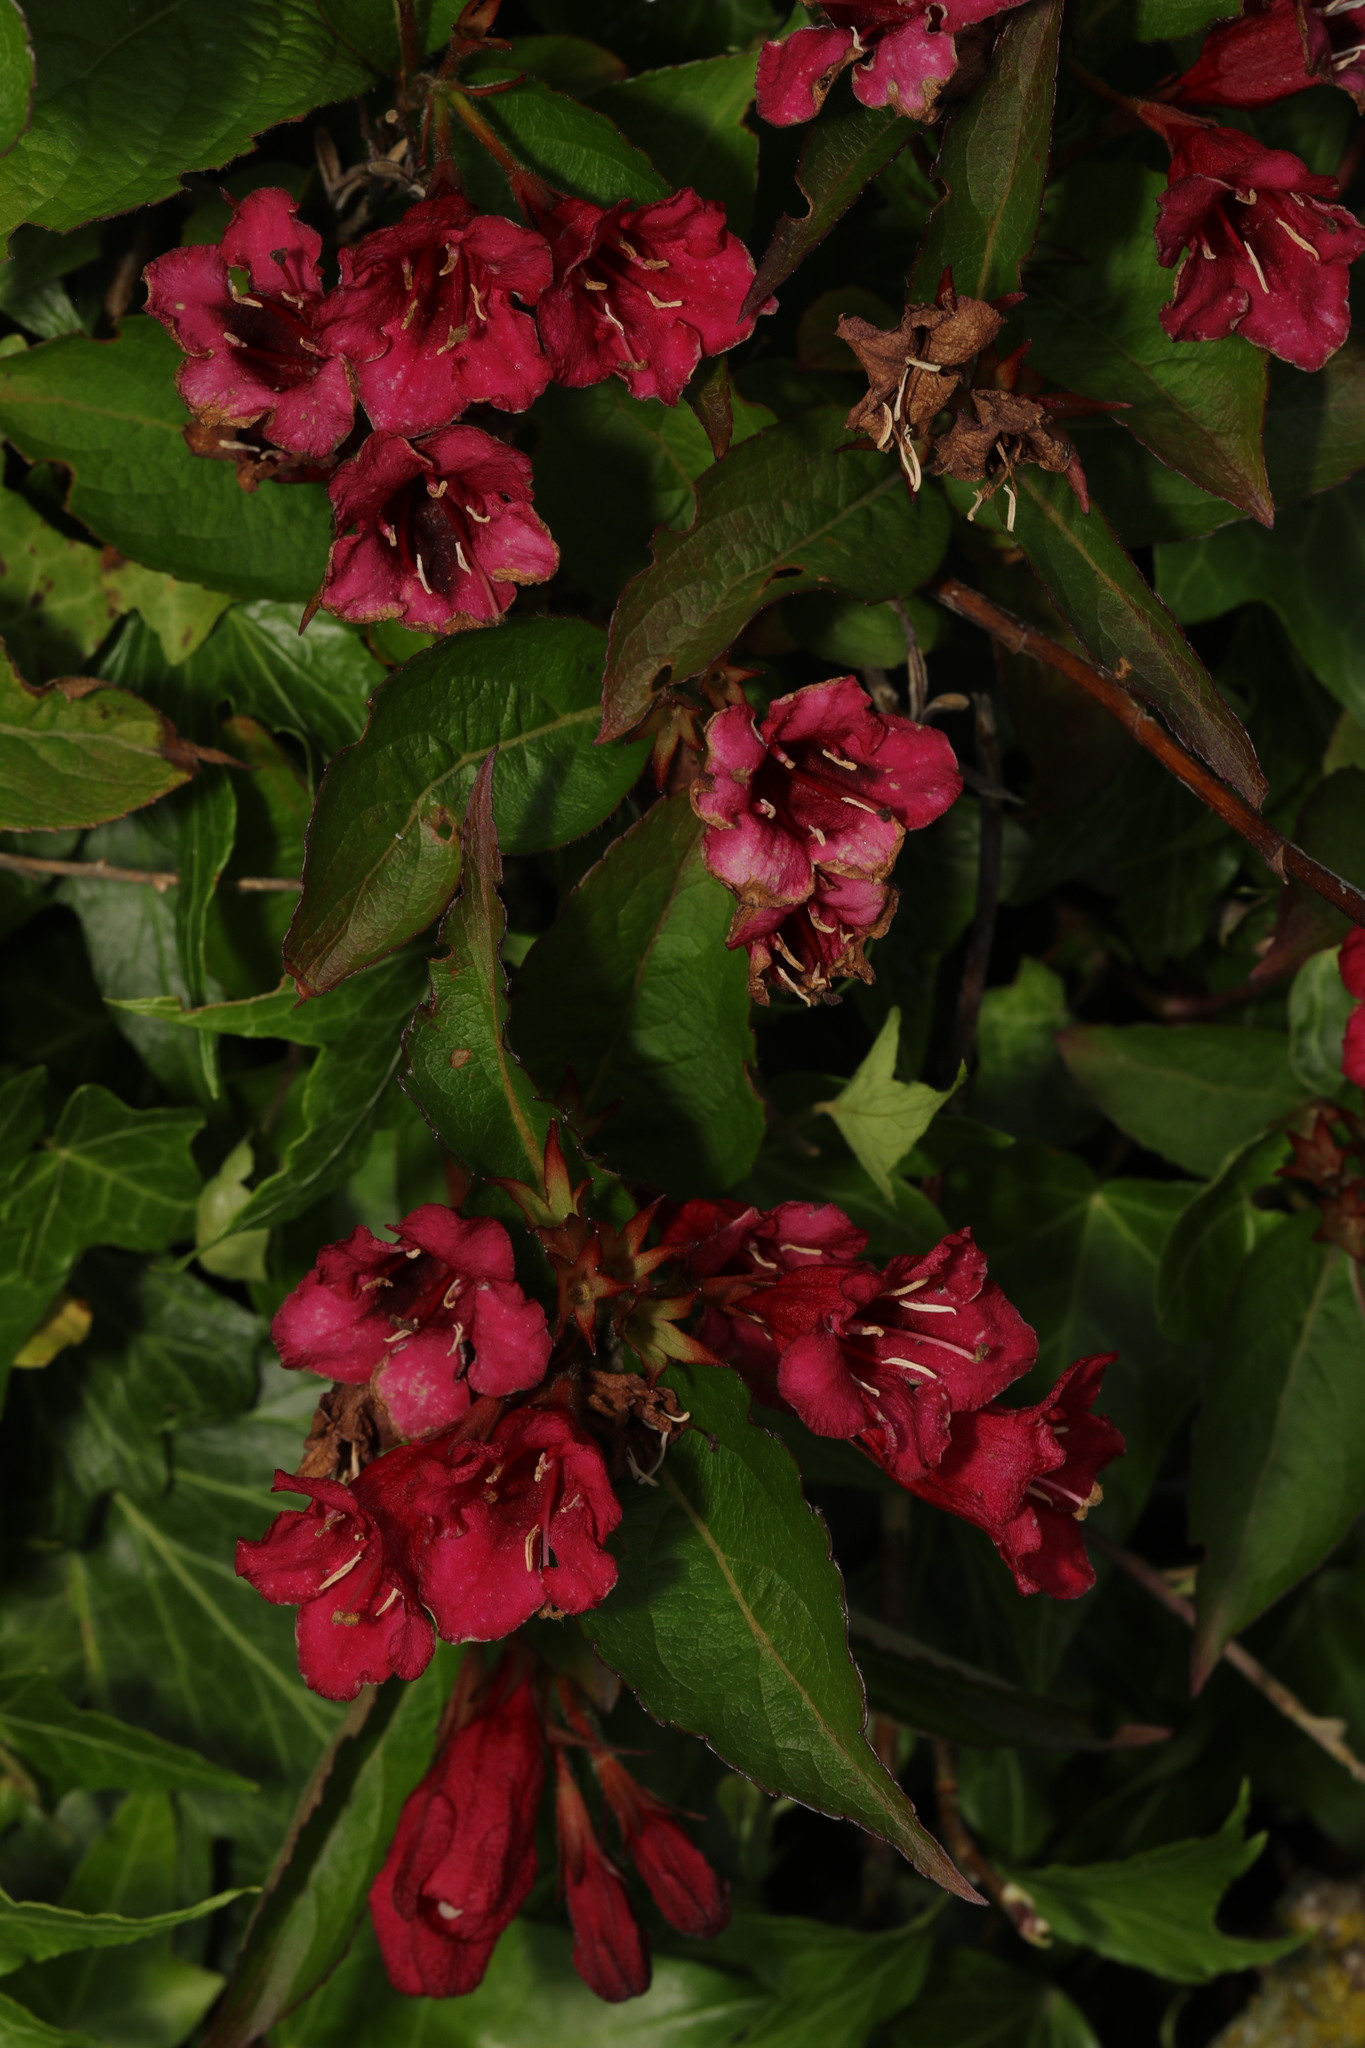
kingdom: Plantae
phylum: Tracheophyta
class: Magnoliopsida
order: Dipsacales
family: Caprifoliaceae
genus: Weigela
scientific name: Weigela florida
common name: Weigelia
